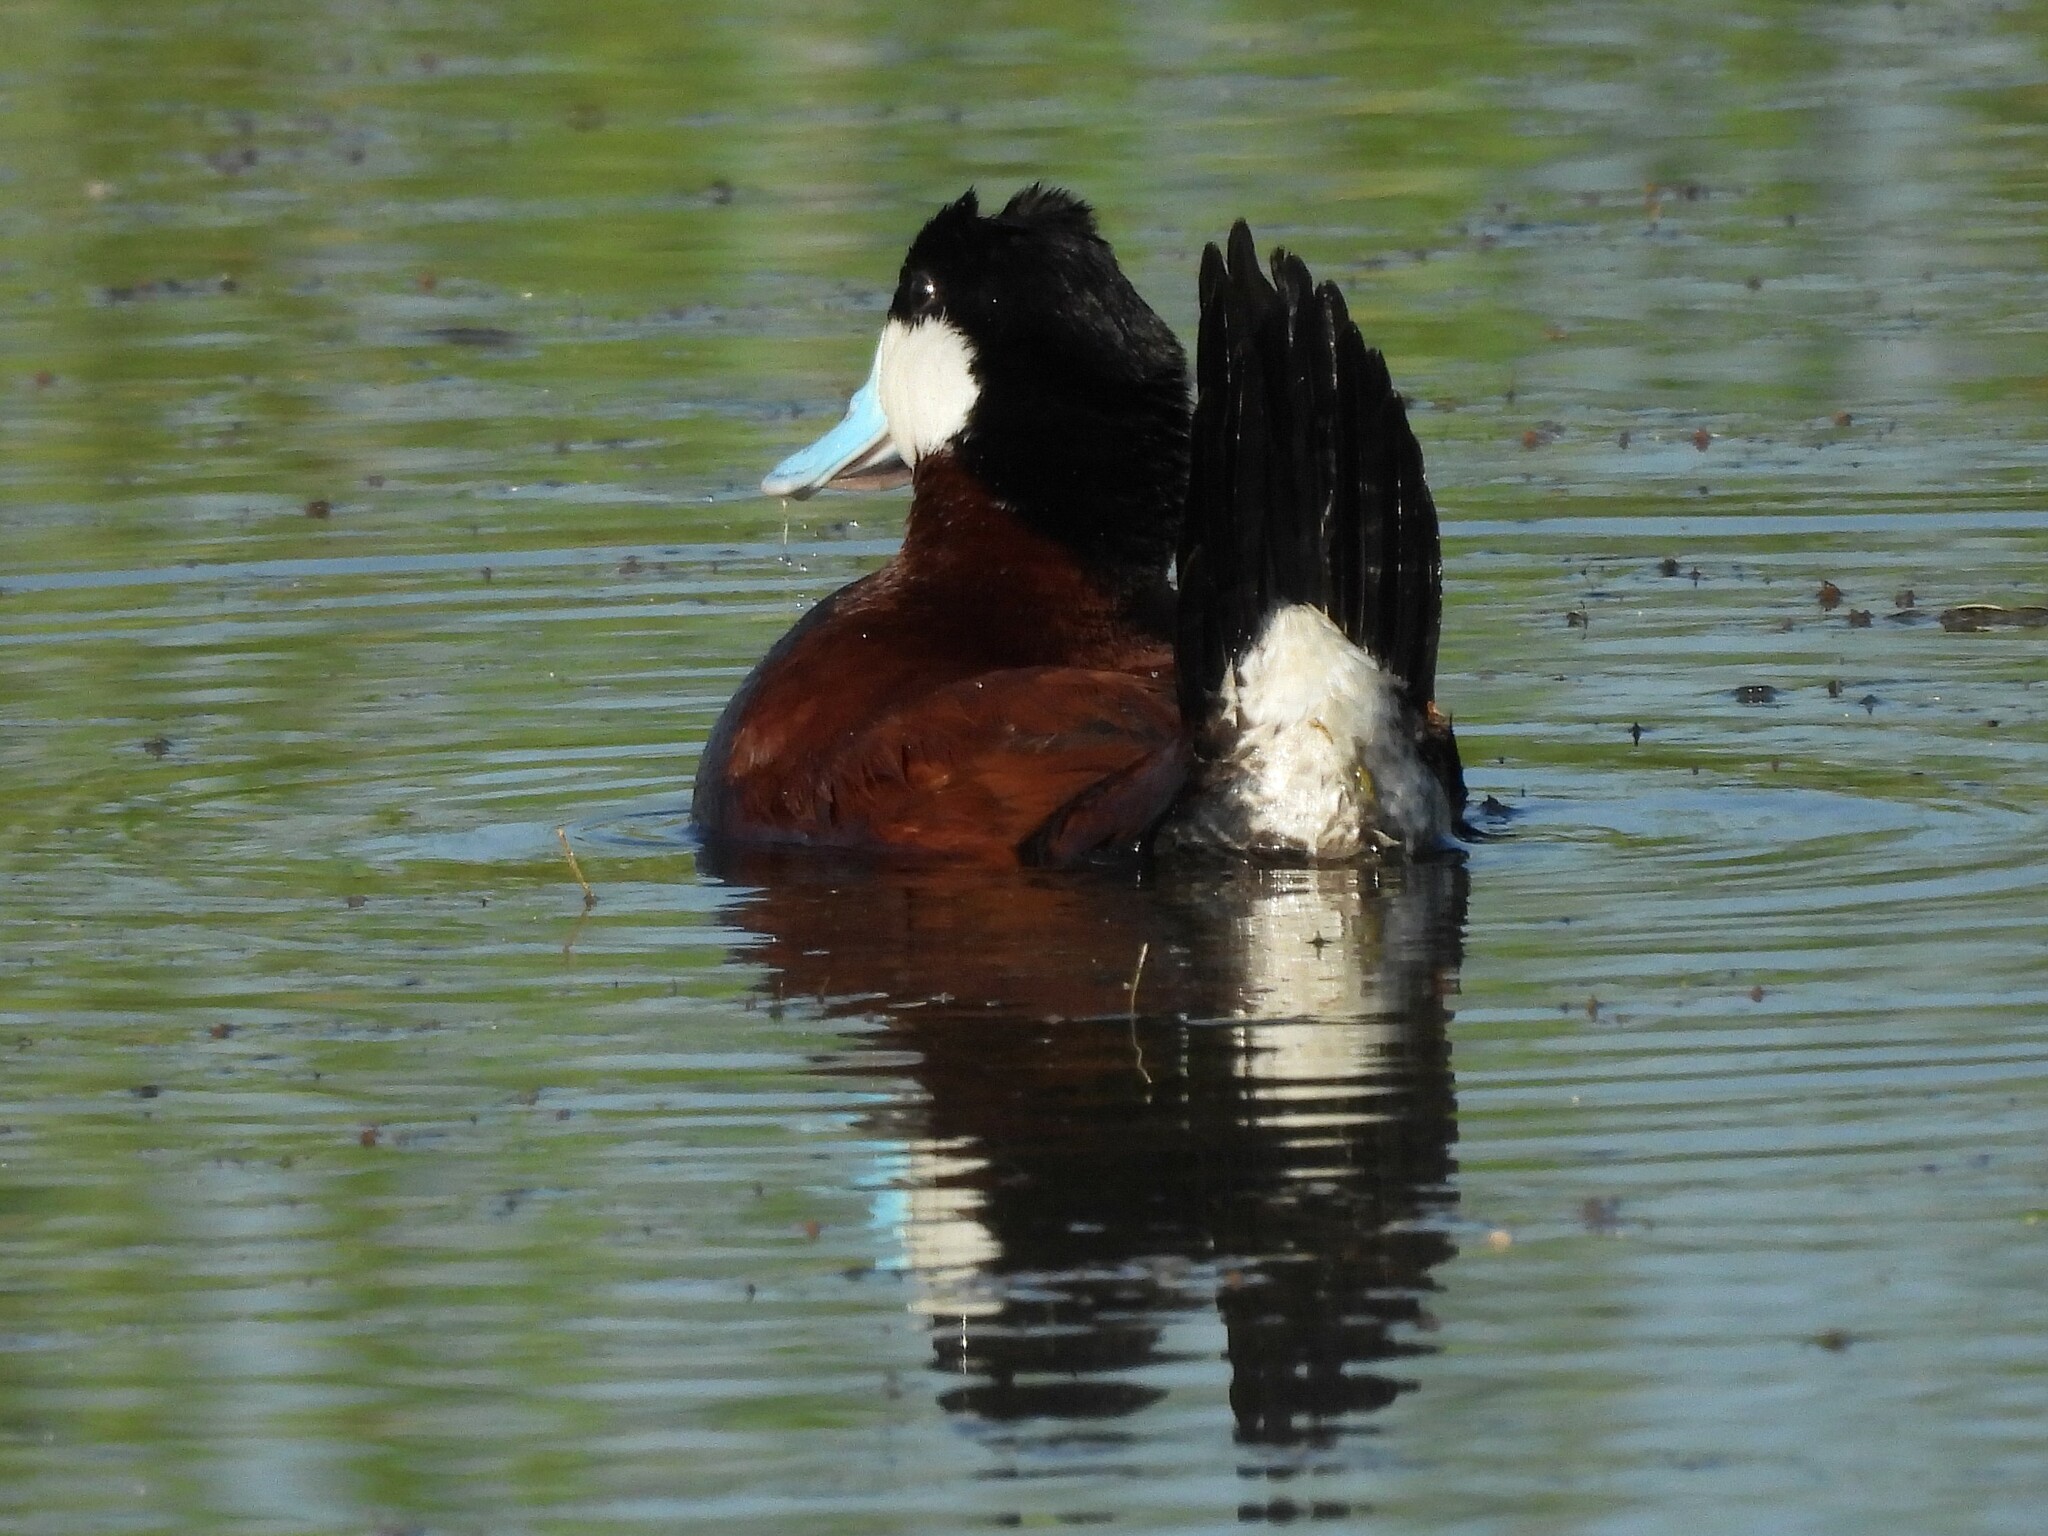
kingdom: Animalia
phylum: Chordata
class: Aves
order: Anseriformes
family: Anatidae
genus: Oxyura
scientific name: Oxyura jamaicensis
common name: Ruddy duck
